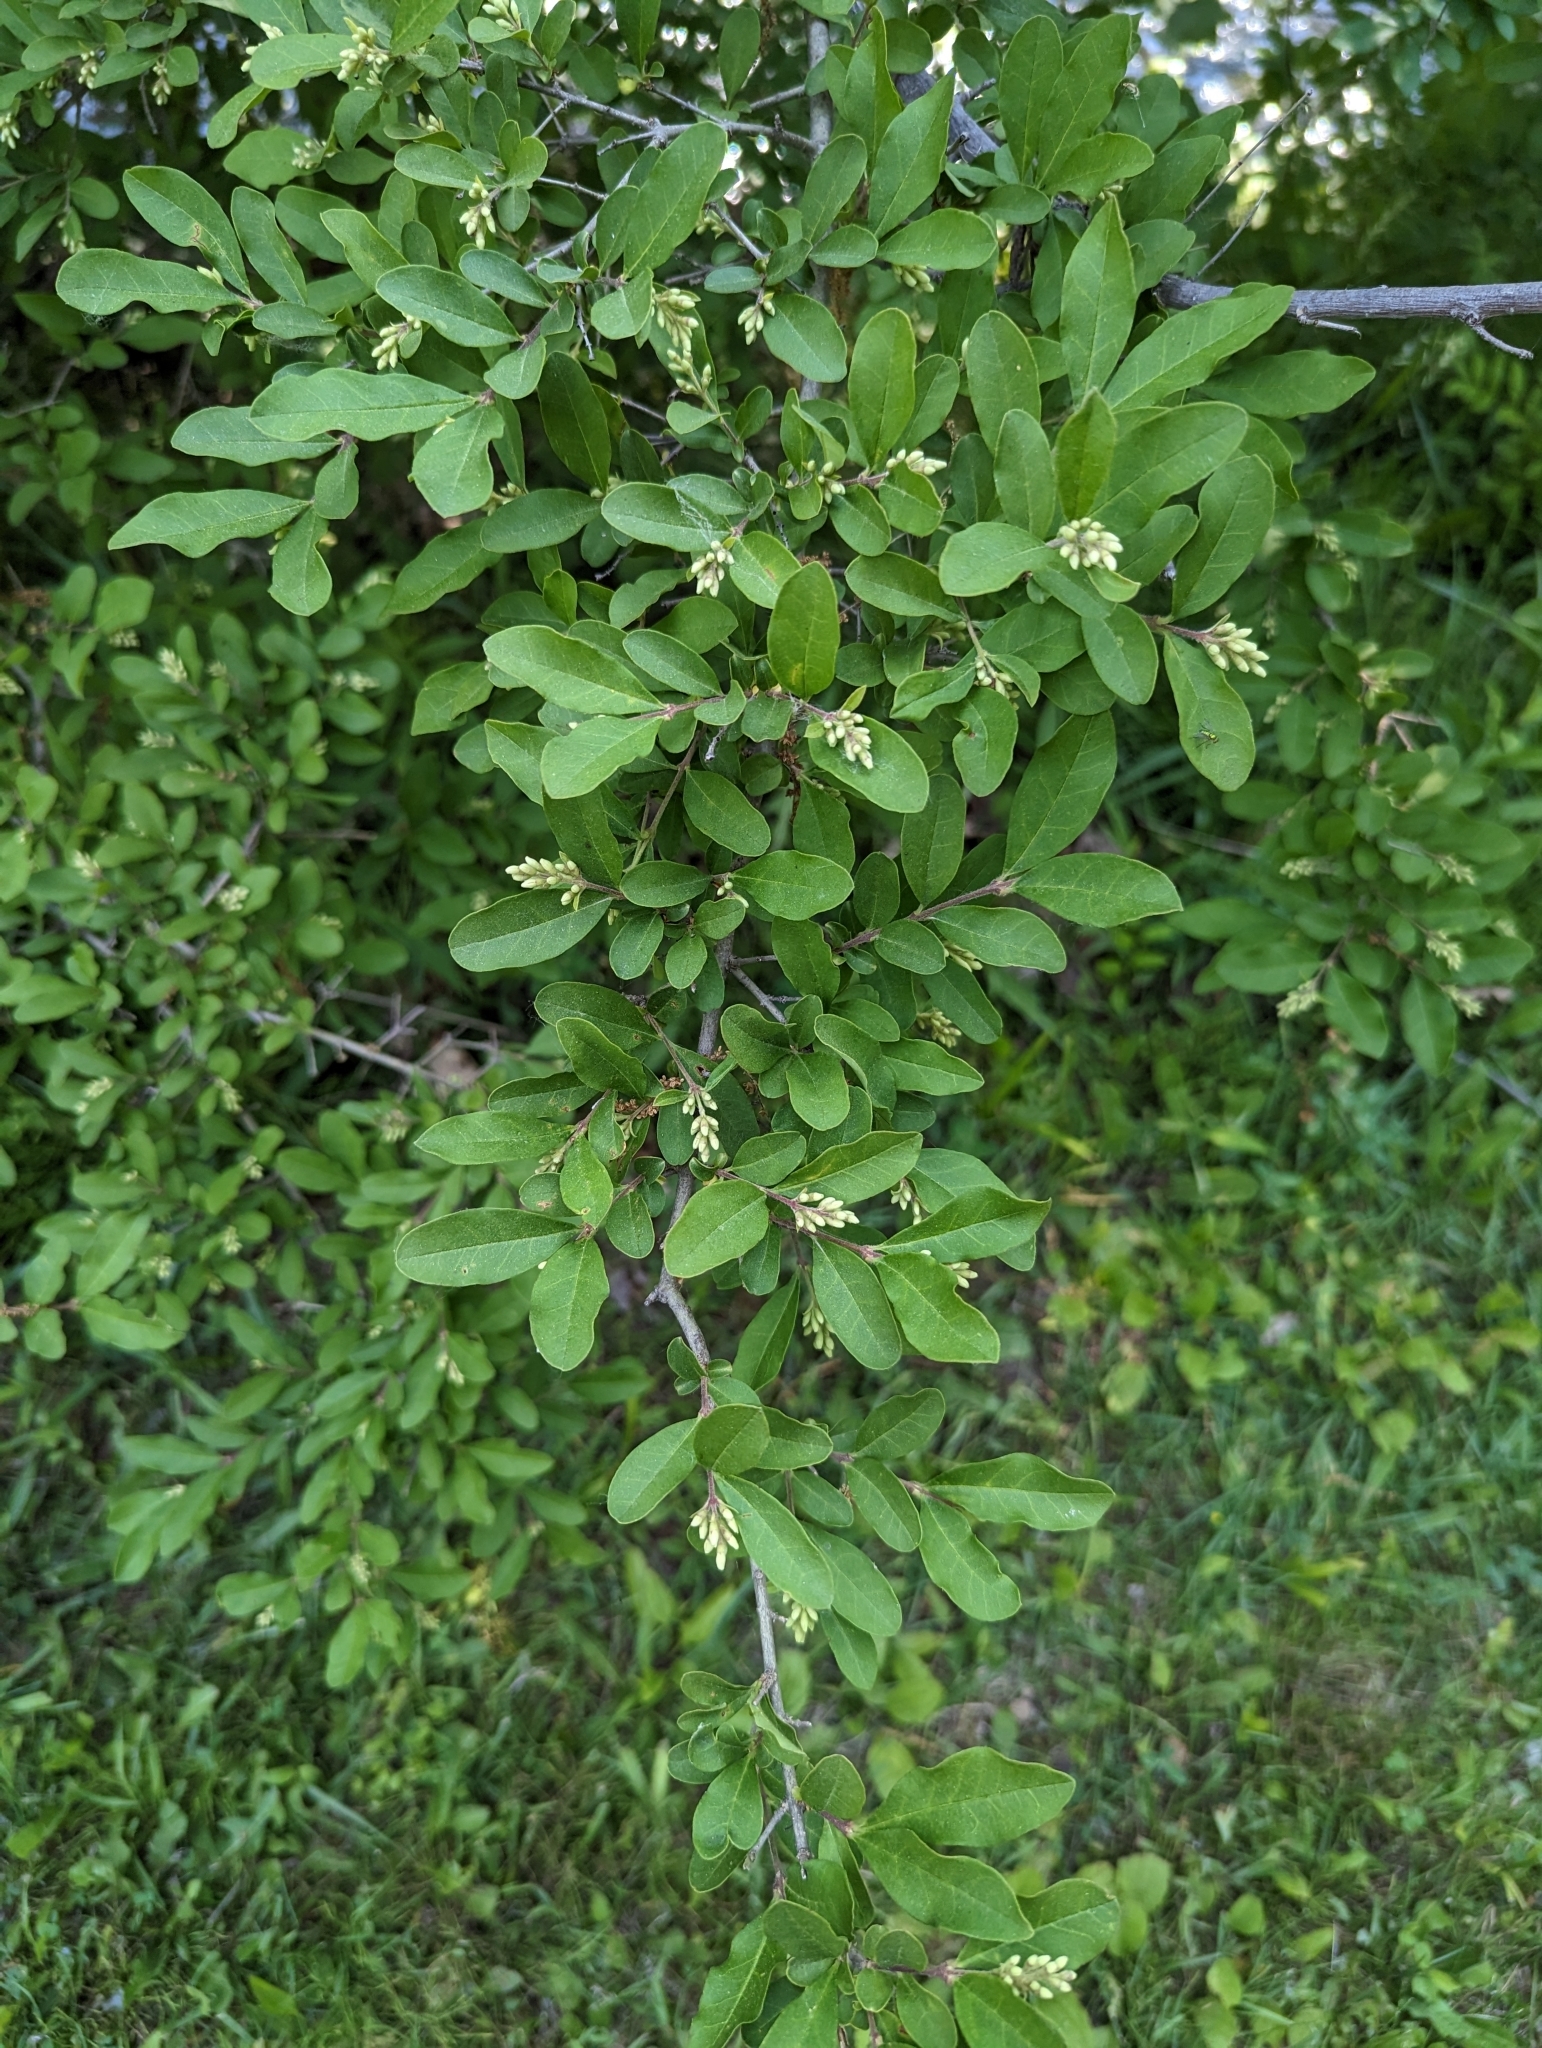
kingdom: Plantae
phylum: Tracheophyta
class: Magnoliopsida
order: Lamiales
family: Oleaceae
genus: Ligustrum
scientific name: Ligustrum obtusifolium
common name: Border privet
